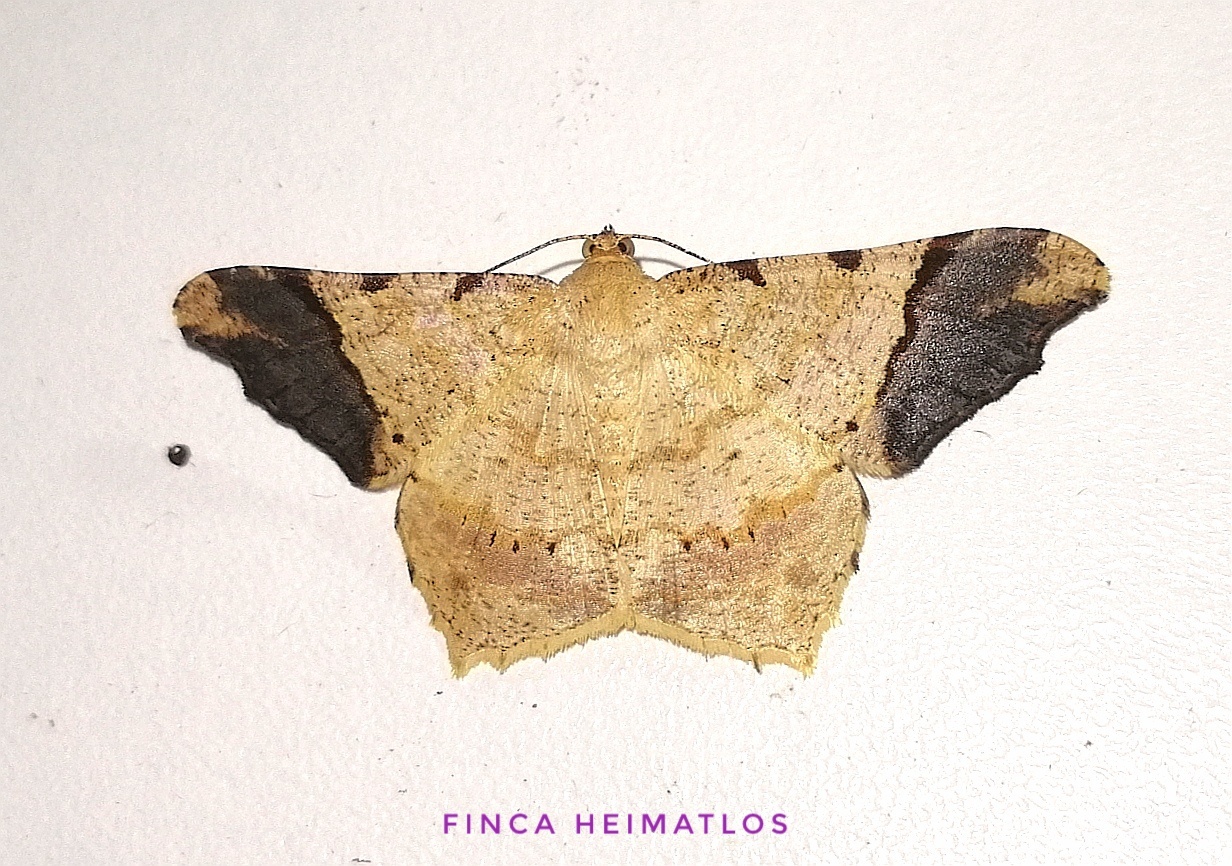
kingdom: Animalia
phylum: Arthropoda
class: Insecta
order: Lepidoptera
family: Geometridae
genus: Macaria
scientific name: Macaria gambarina
